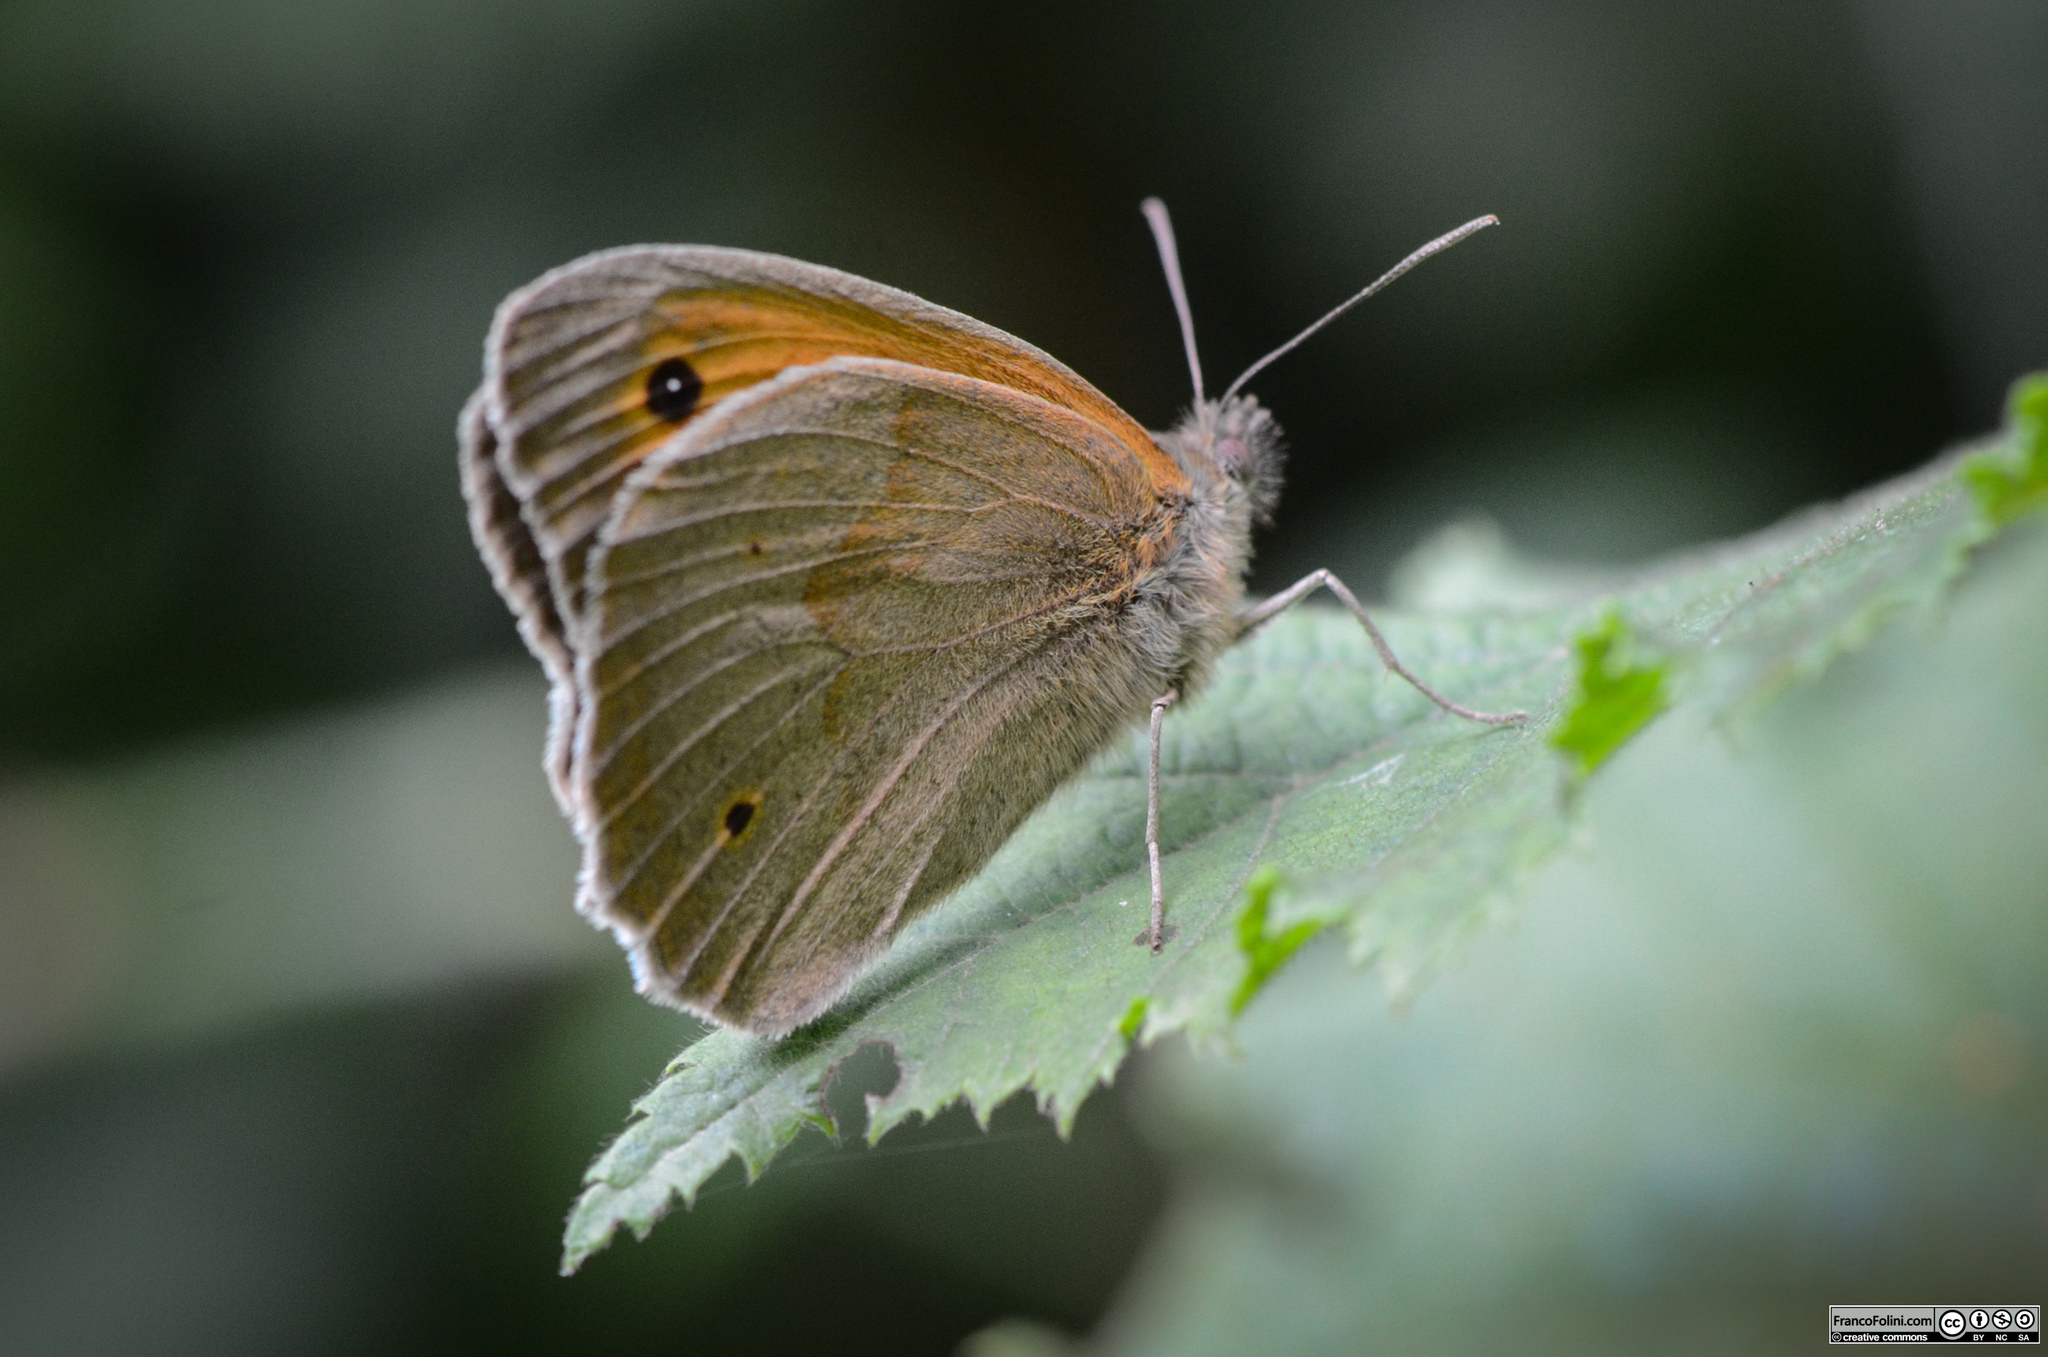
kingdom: Animalia
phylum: Arthropoda
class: Insecta
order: Lepidoptera
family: Nymphalidae
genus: Maniola
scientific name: Maniola jurtina
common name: Meadow brown
